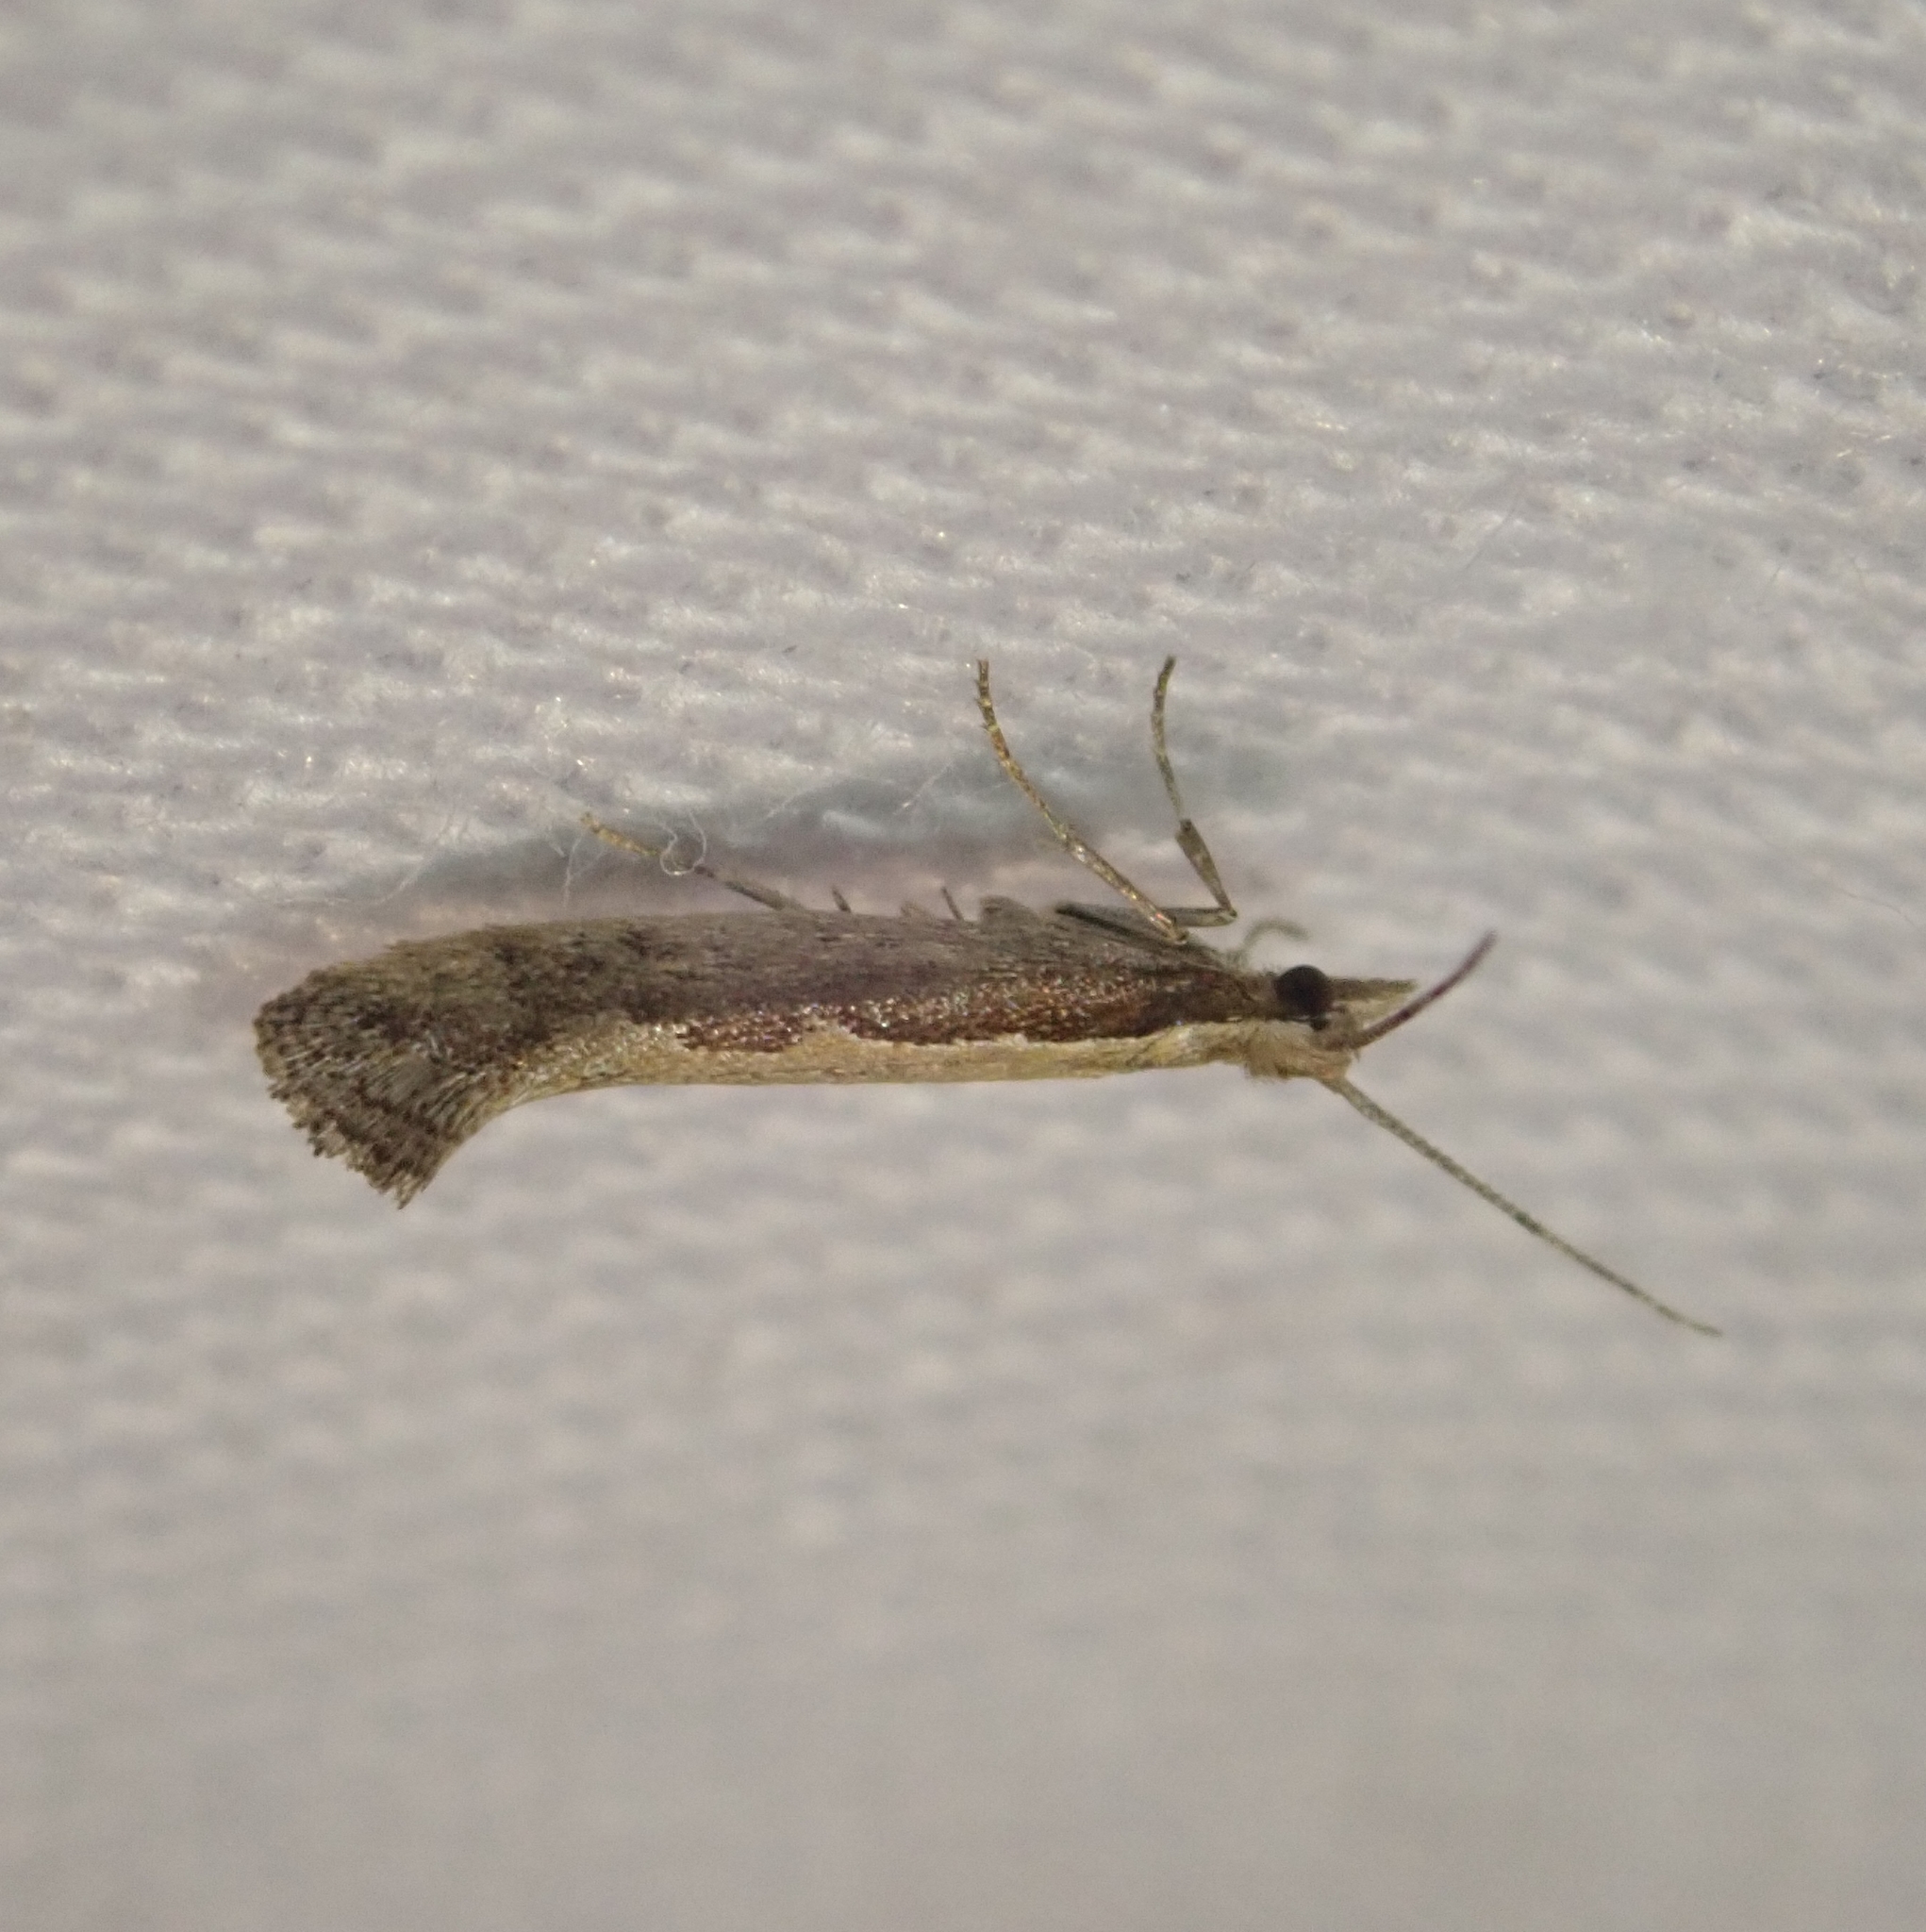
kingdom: Animalia
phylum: Arthropoda
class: Insecta
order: Lepidoptera
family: Plutellidae
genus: Plutella
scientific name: Plutella xylostella
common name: Diamond-back moth
